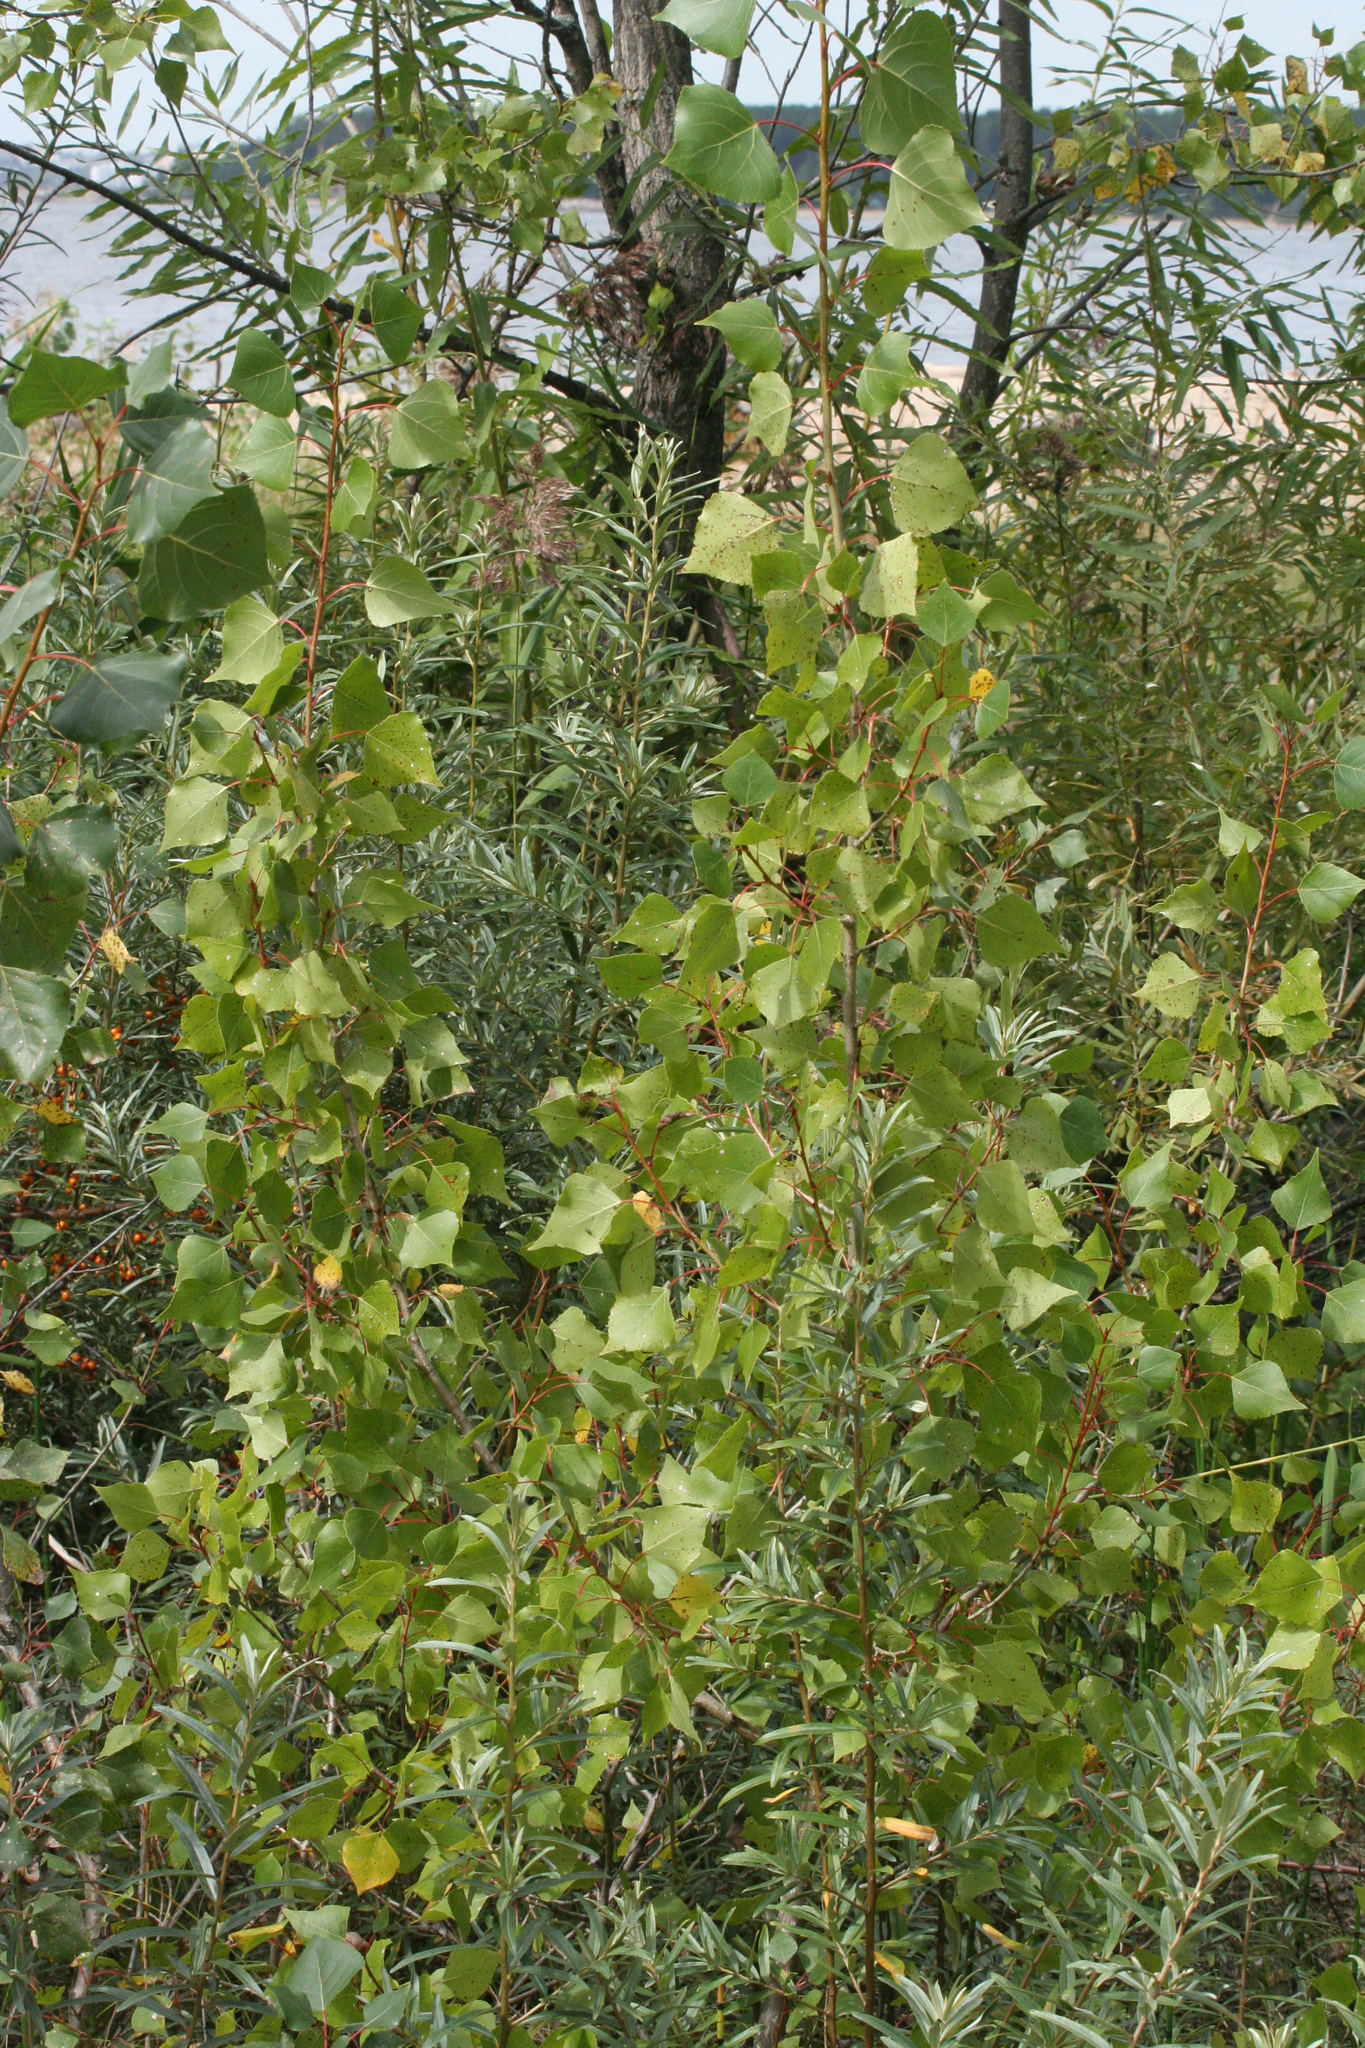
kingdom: Plantae
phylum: Tracheophyta
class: Magnoliopsida
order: Malpighiales
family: Salicaceae
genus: Populus
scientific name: Populus nigra
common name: Black poplar
